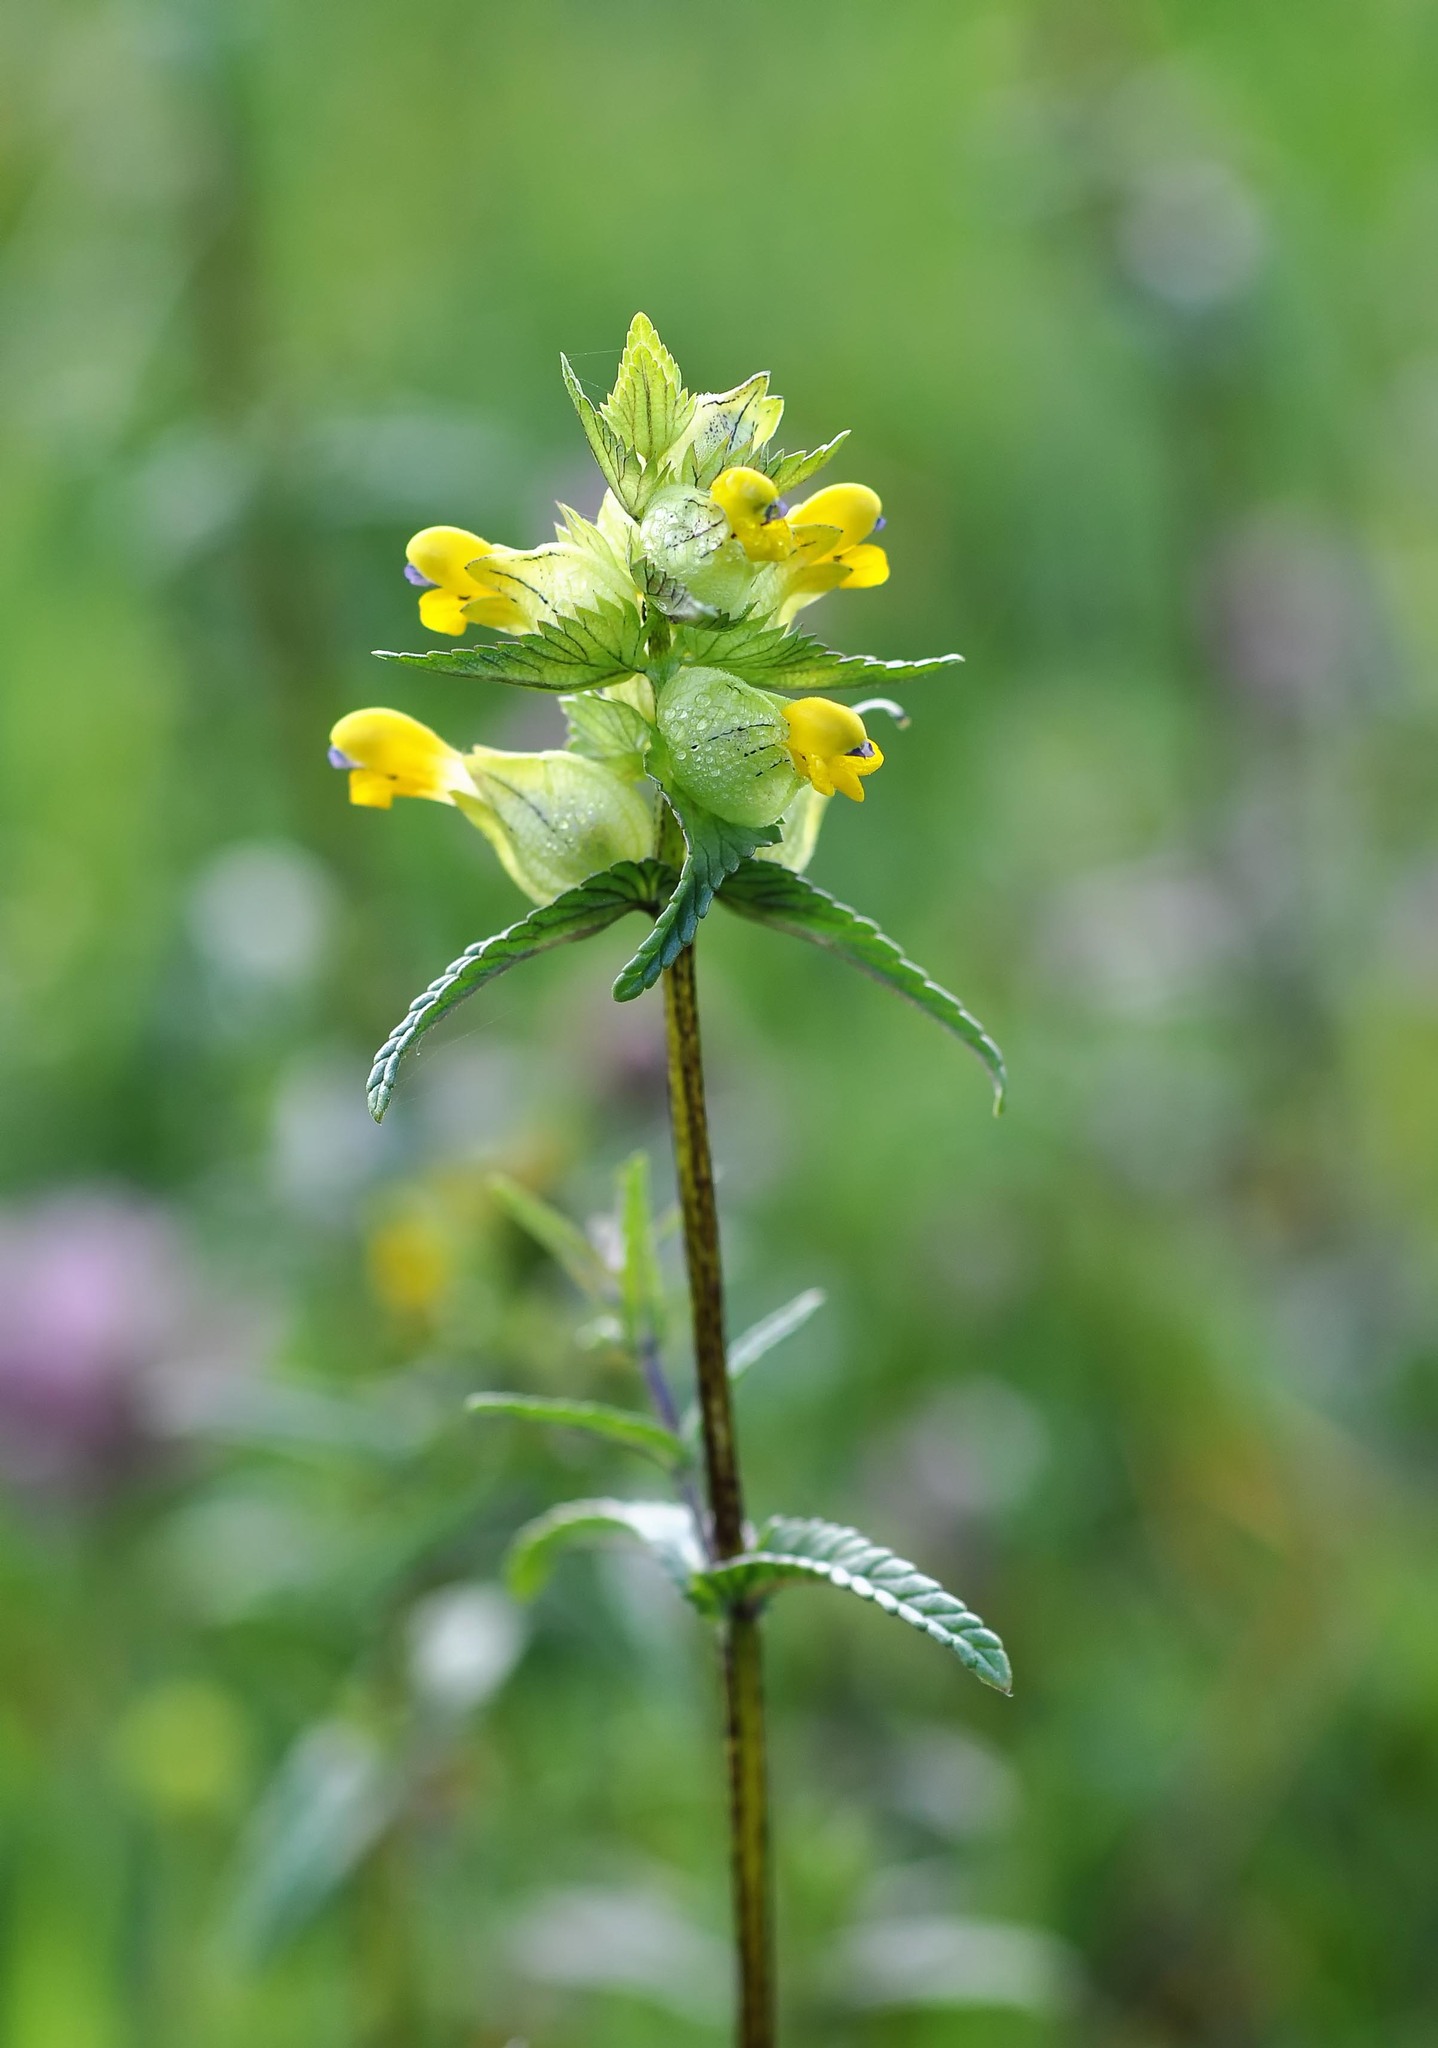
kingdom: Plantae
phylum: Tracheophyta
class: Magnoliopsida
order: Lamiales
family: Orobanchaceae
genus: Rhinanthus
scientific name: Rhinanthus minor
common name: Yellow-rattle
